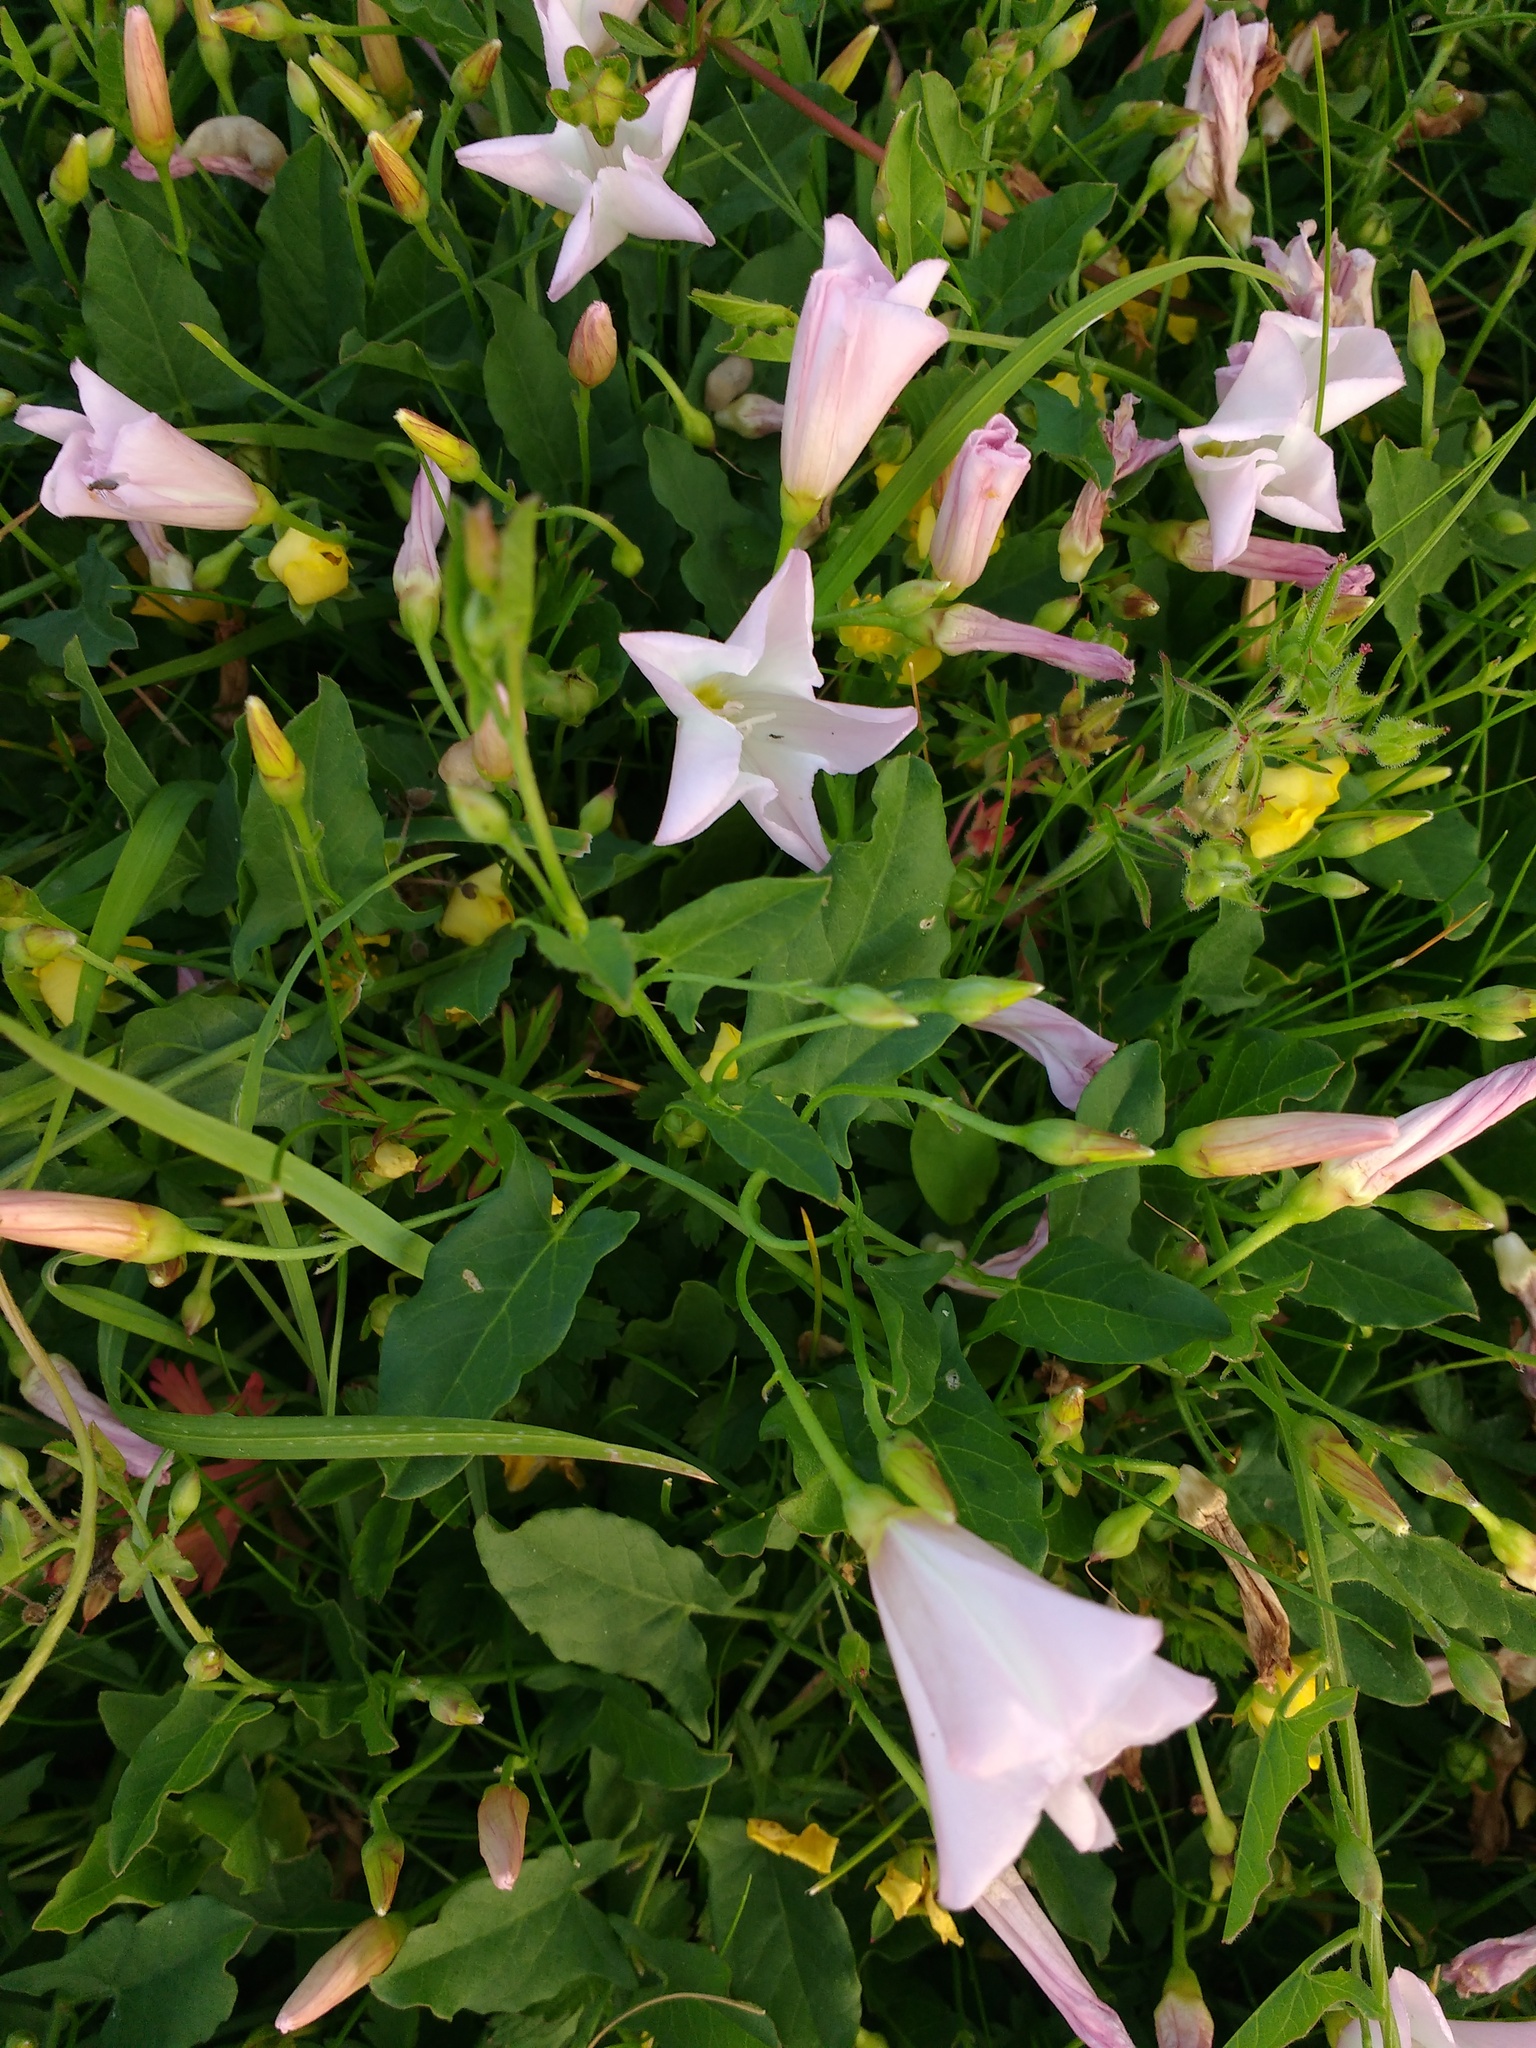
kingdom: Plantae
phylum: Tracheophyta
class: Magnoliopsida
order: Solanales
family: Convolvulaceae
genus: Convolvulus
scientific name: Convolvulus arvensis
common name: Field bindweed
